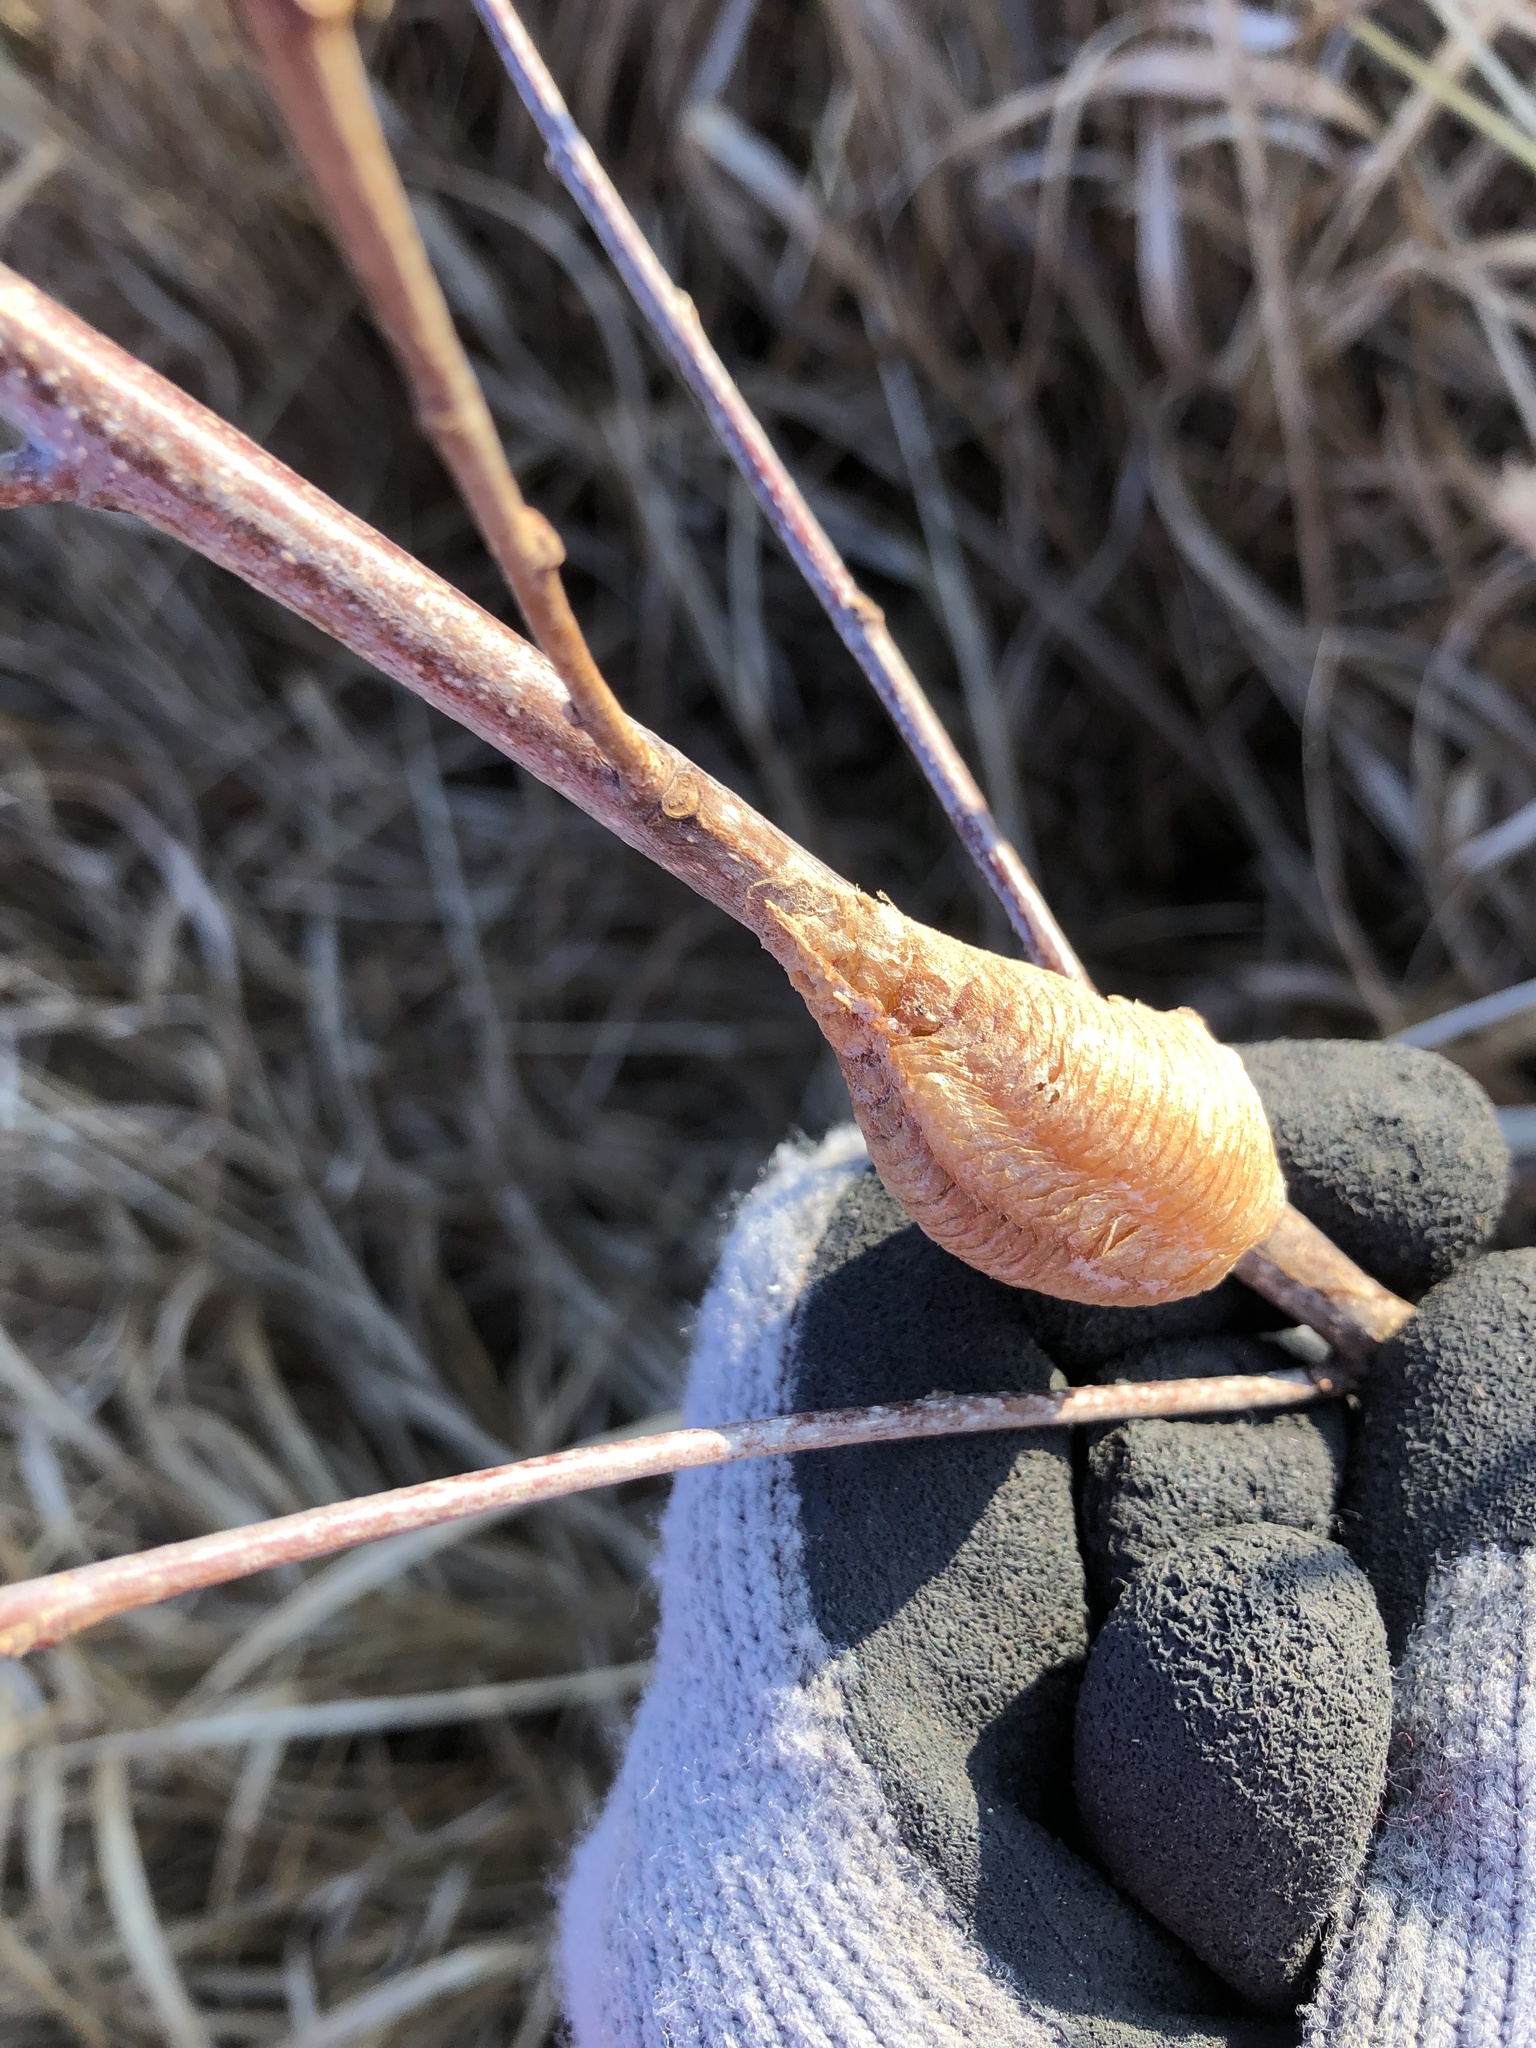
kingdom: Animalia
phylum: Arthropoda
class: Insecta
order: Mantodea
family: Mantidae
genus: Mantis
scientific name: Mantis religiosa
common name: Praying mantis
